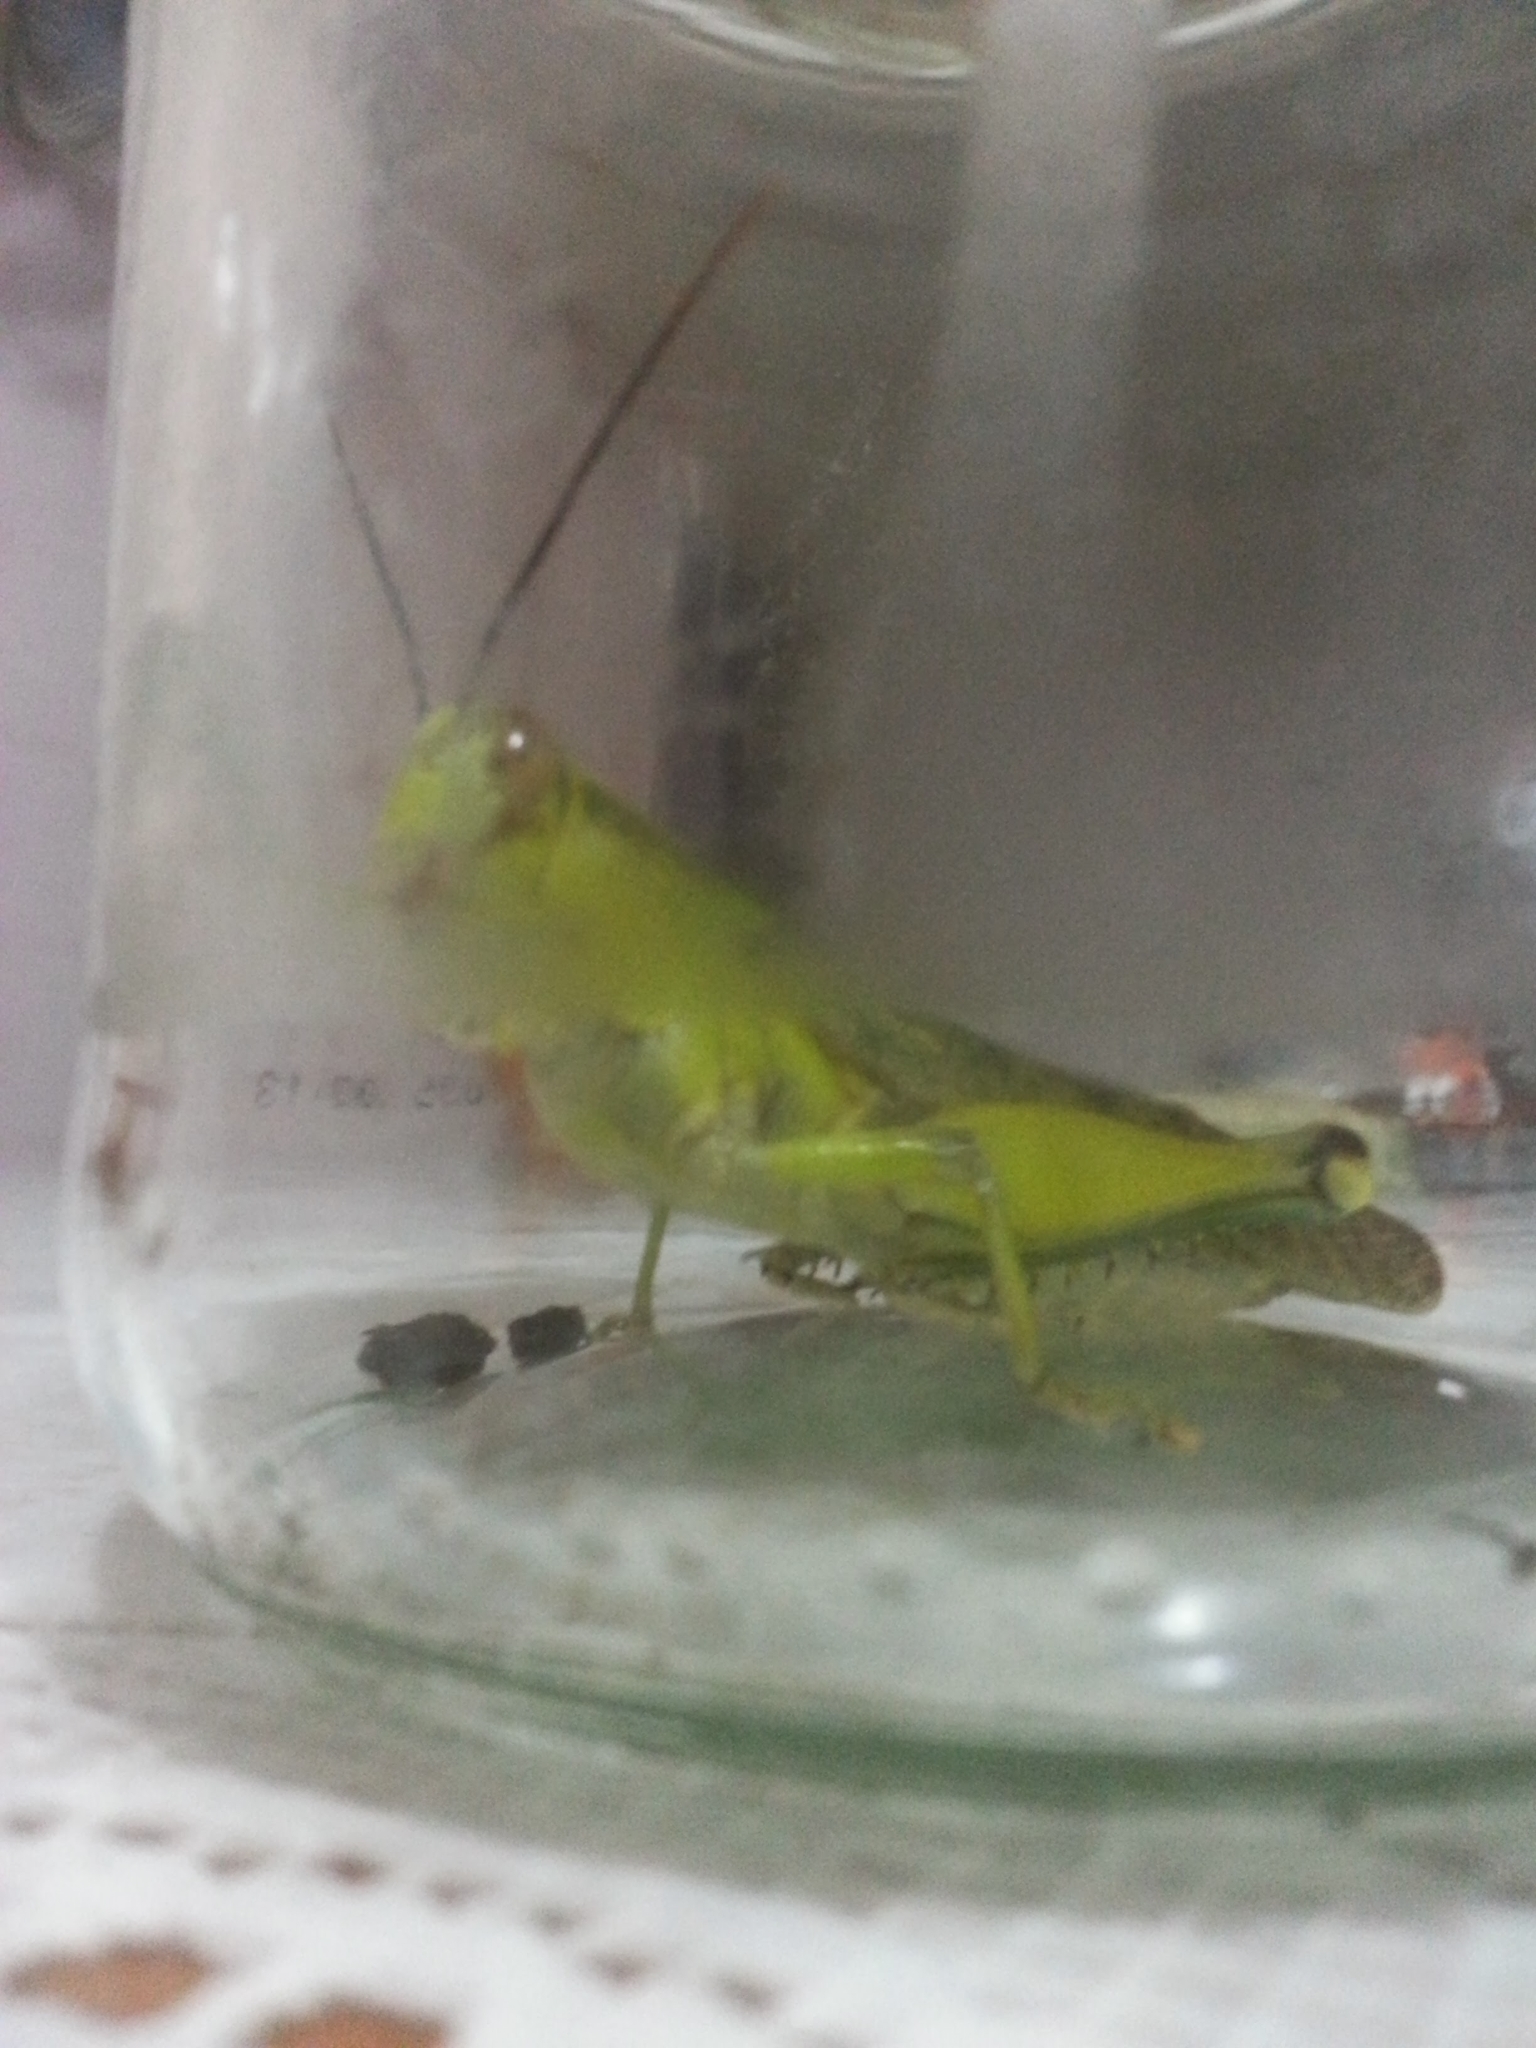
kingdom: Animalia
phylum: Arthropoda
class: Insecta
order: Orthoptera
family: Acrididae
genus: Valanga
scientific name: Valanga nigricornis
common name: Javanese bird grasshopper
